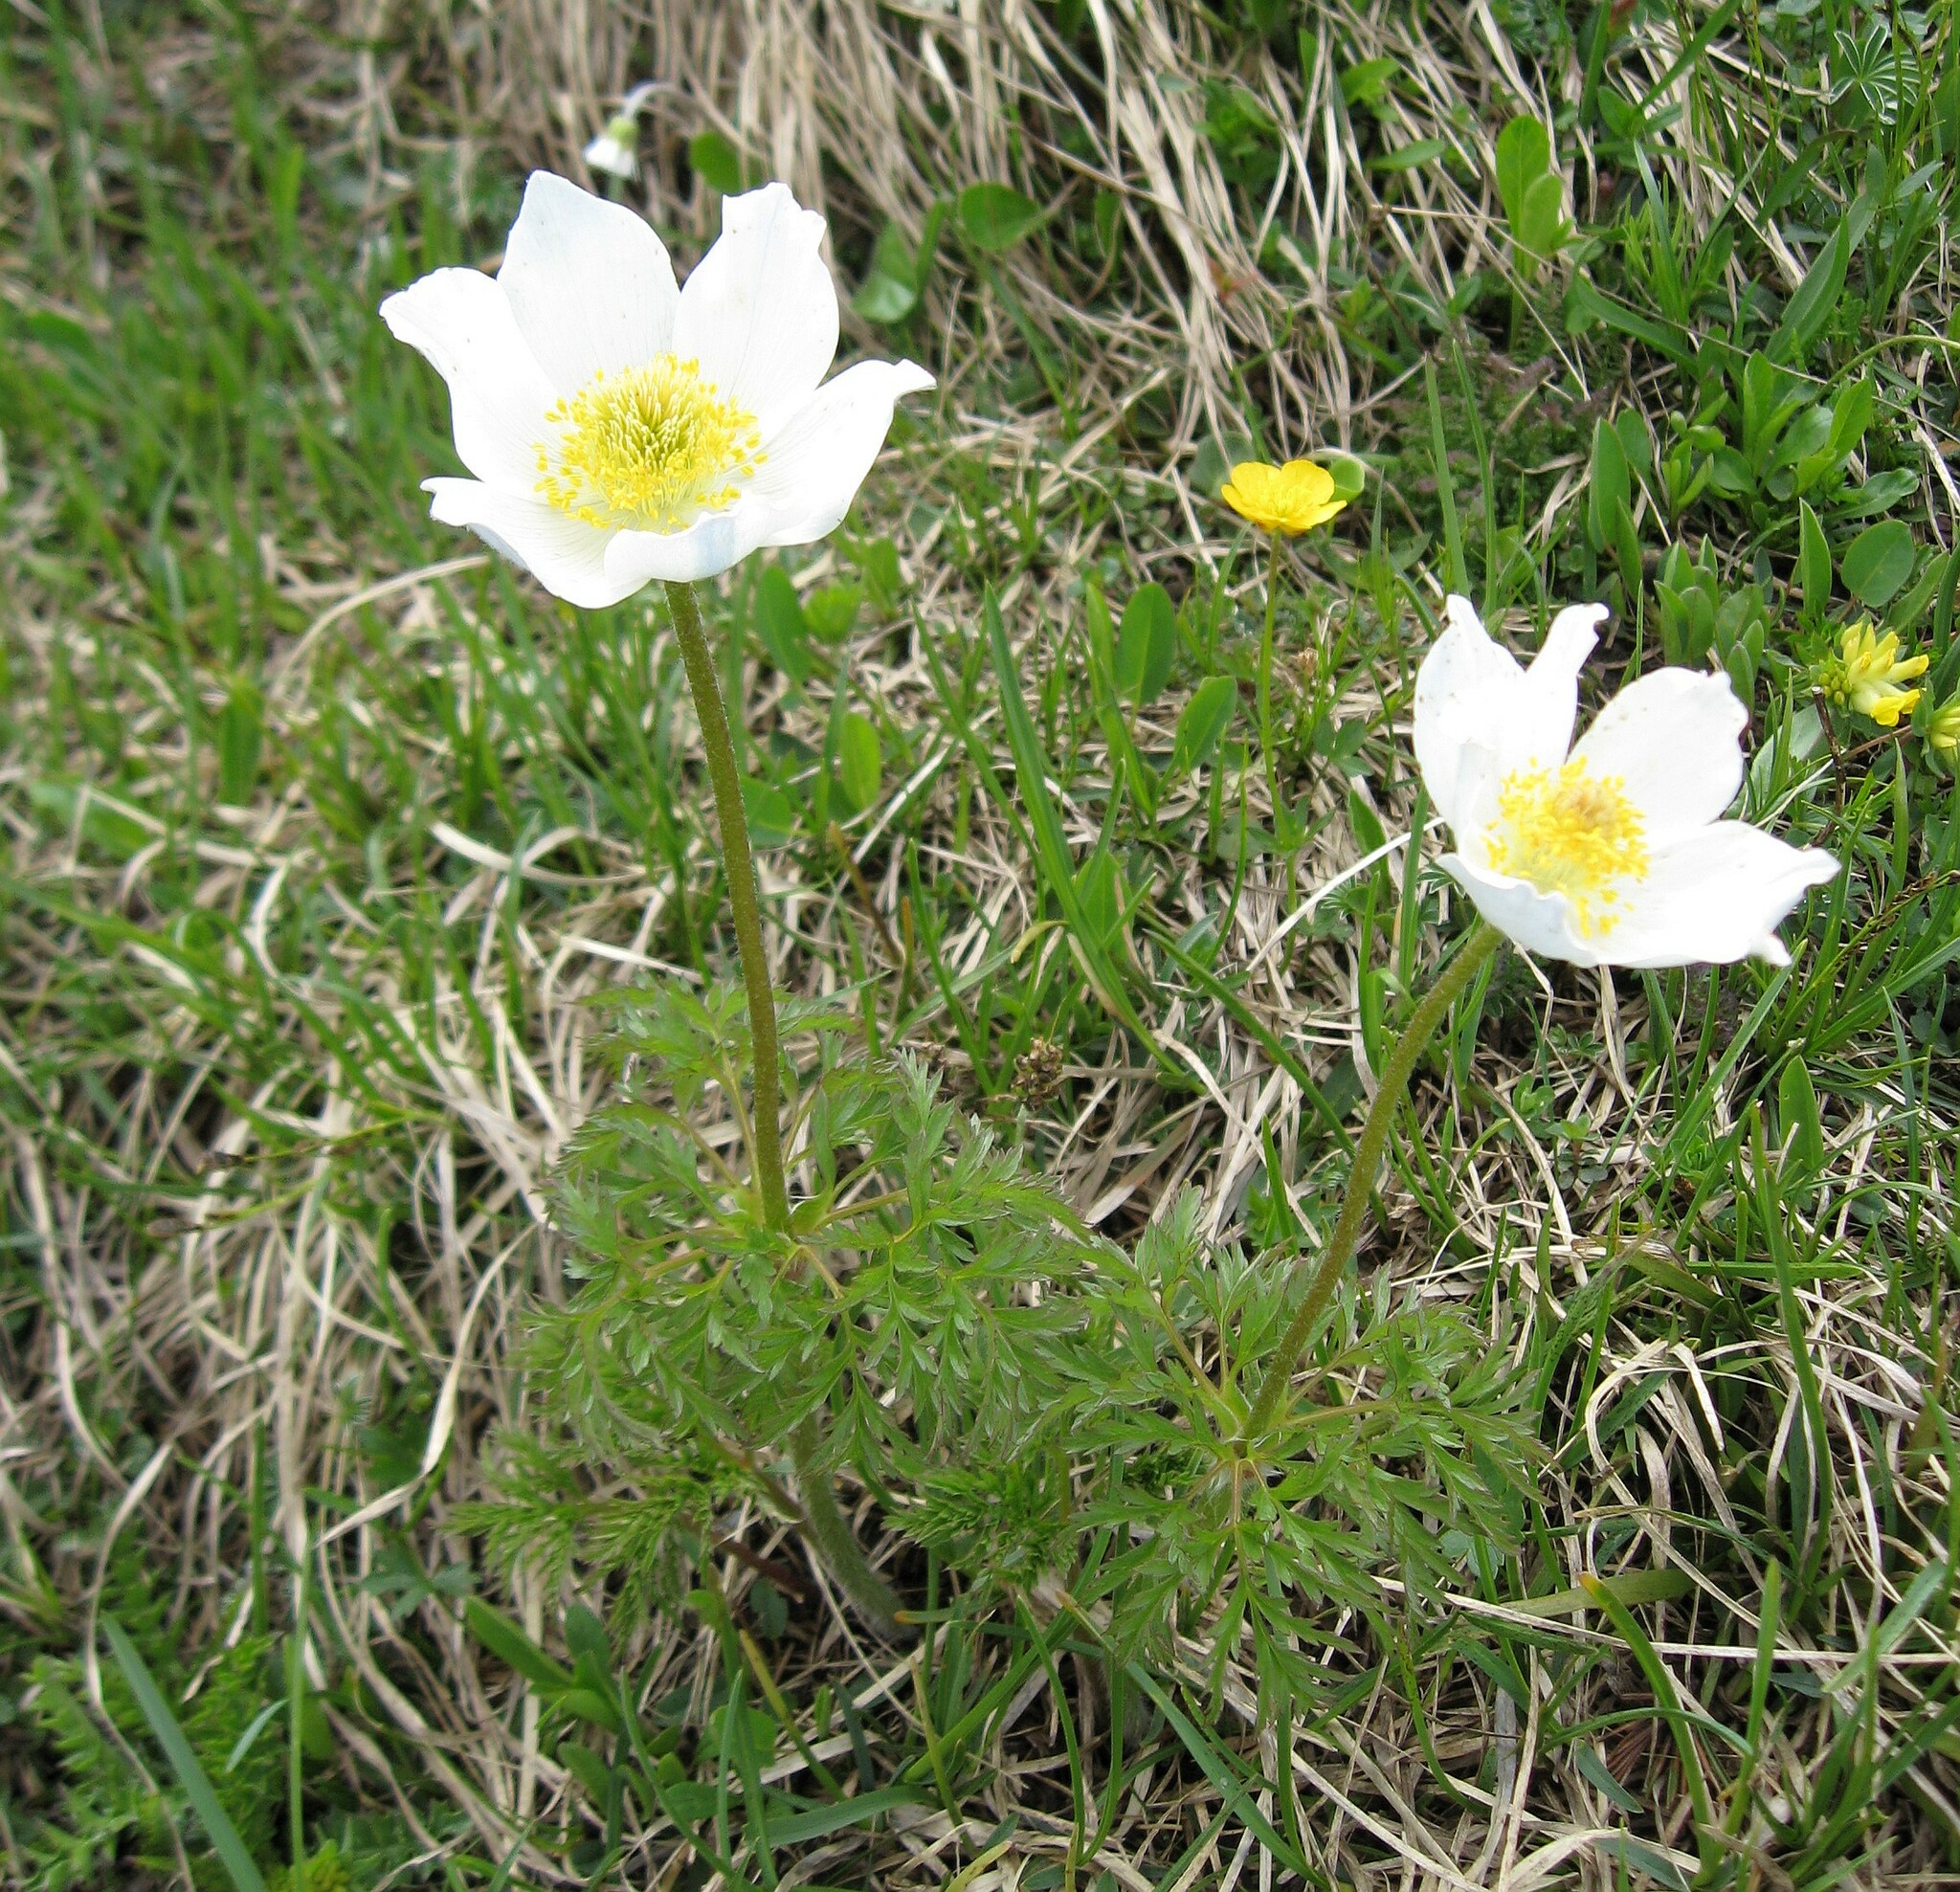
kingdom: Plantae
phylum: Tracheophyta
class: Magnoliopsida
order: Ranunculales
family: Ranunculaceae
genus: Pulsatilla
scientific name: Pulsatilla alpina
